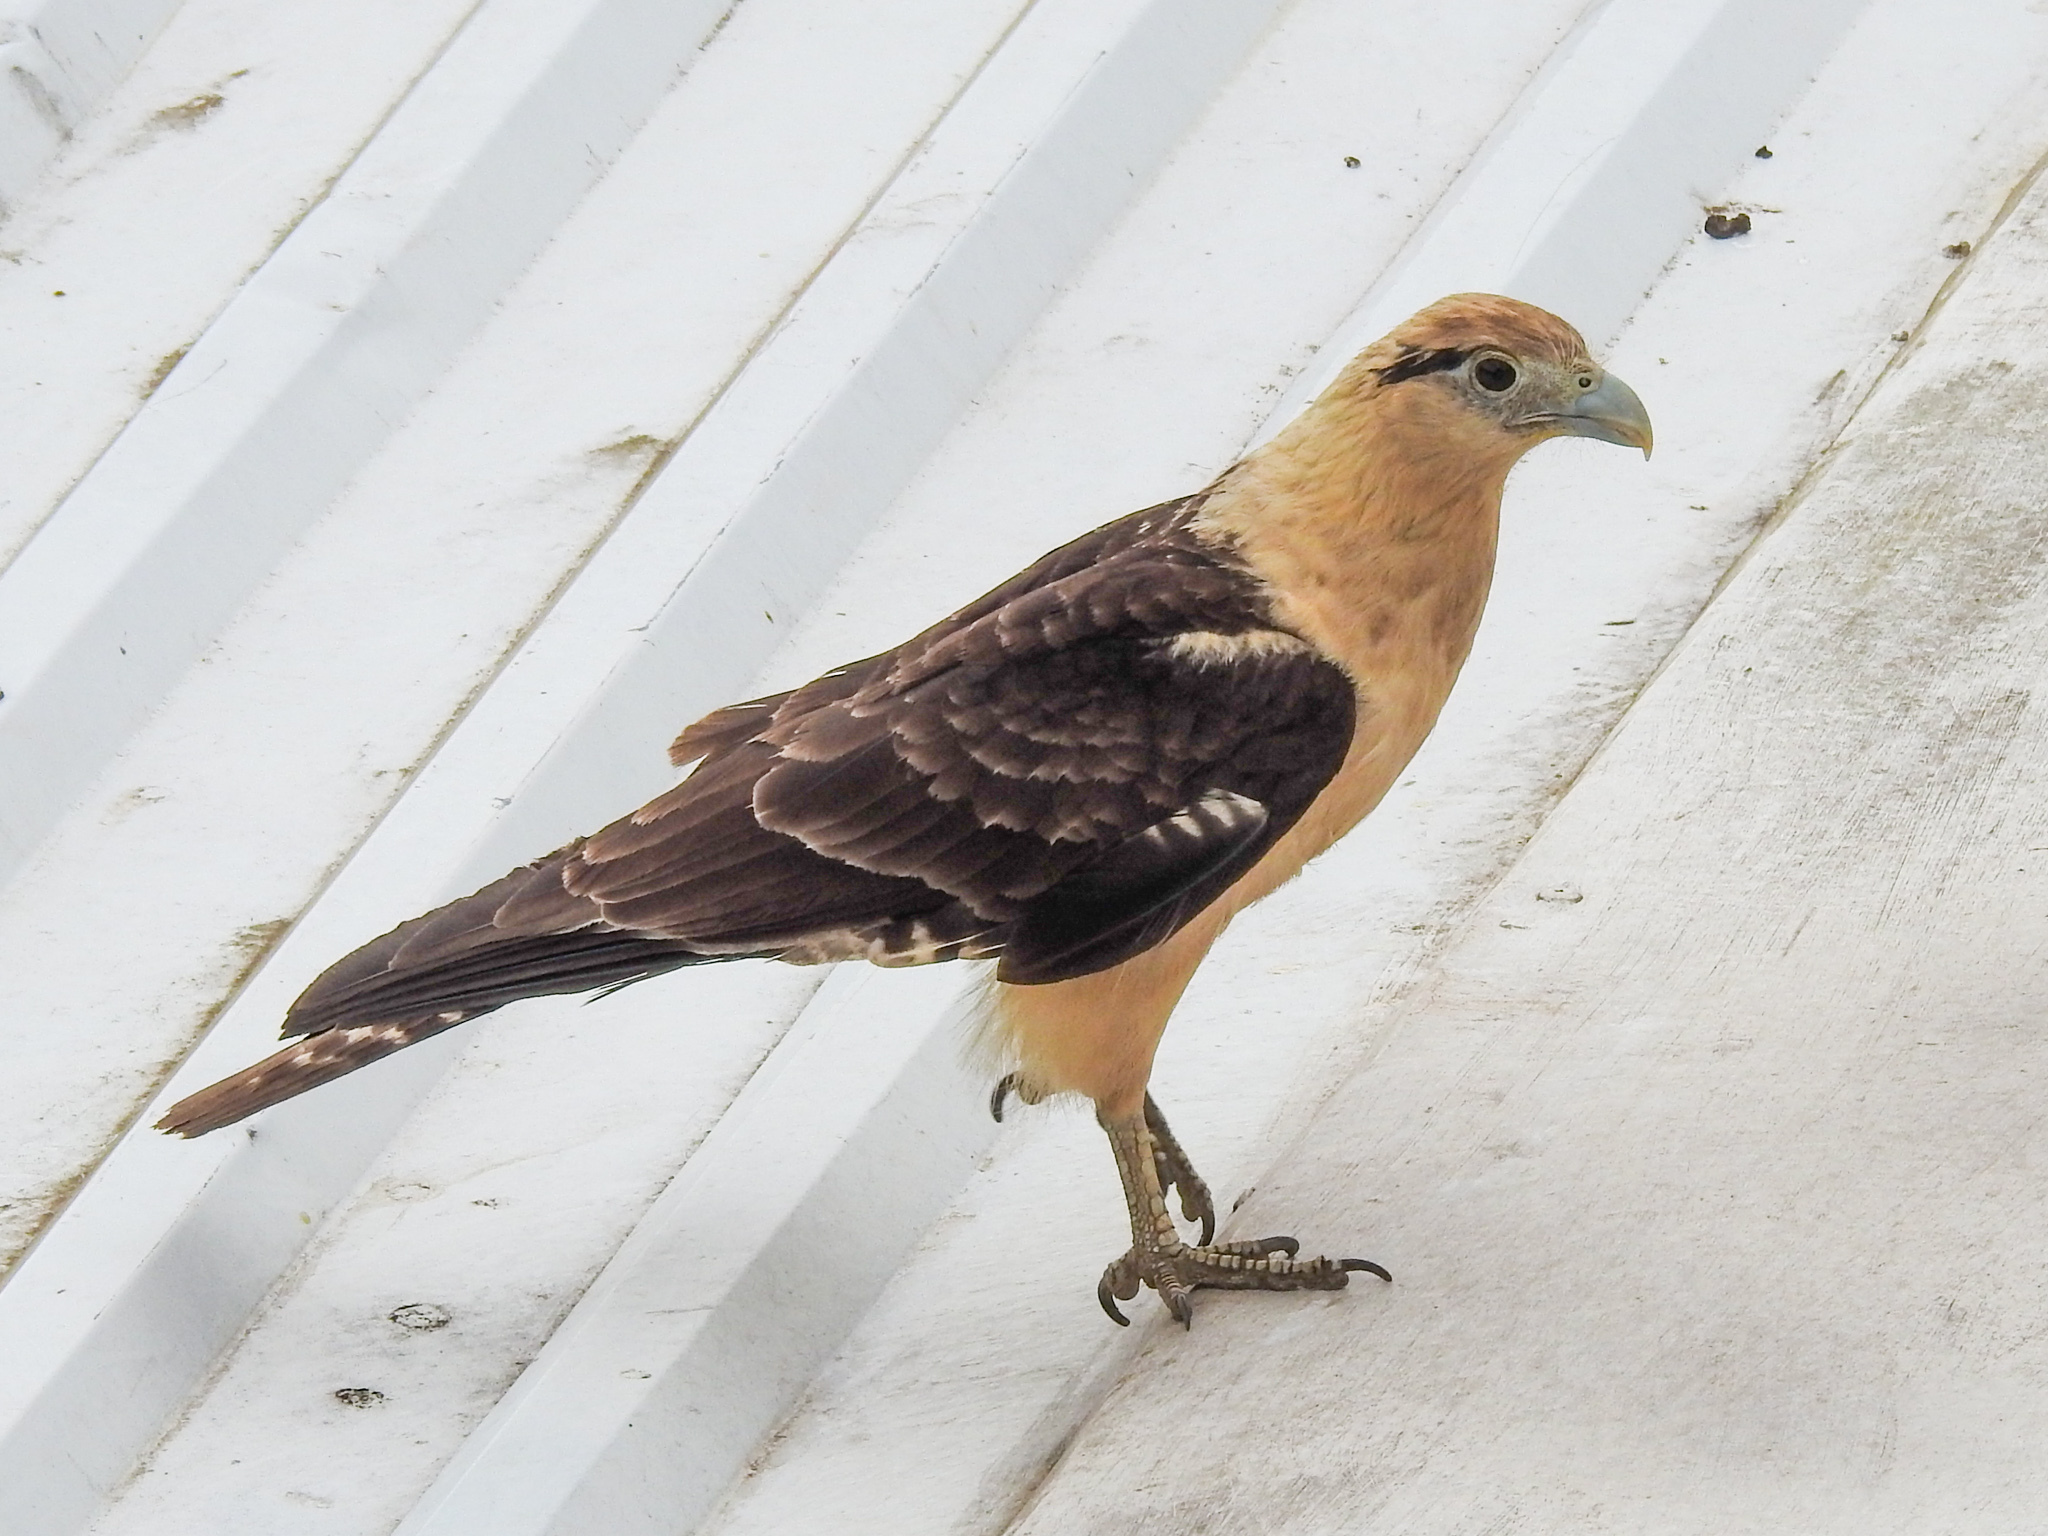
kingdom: Animalia
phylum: Chordata
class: Aves
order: Falconiformes
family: Falconidae
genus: Daptrius
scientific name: Daptrius
